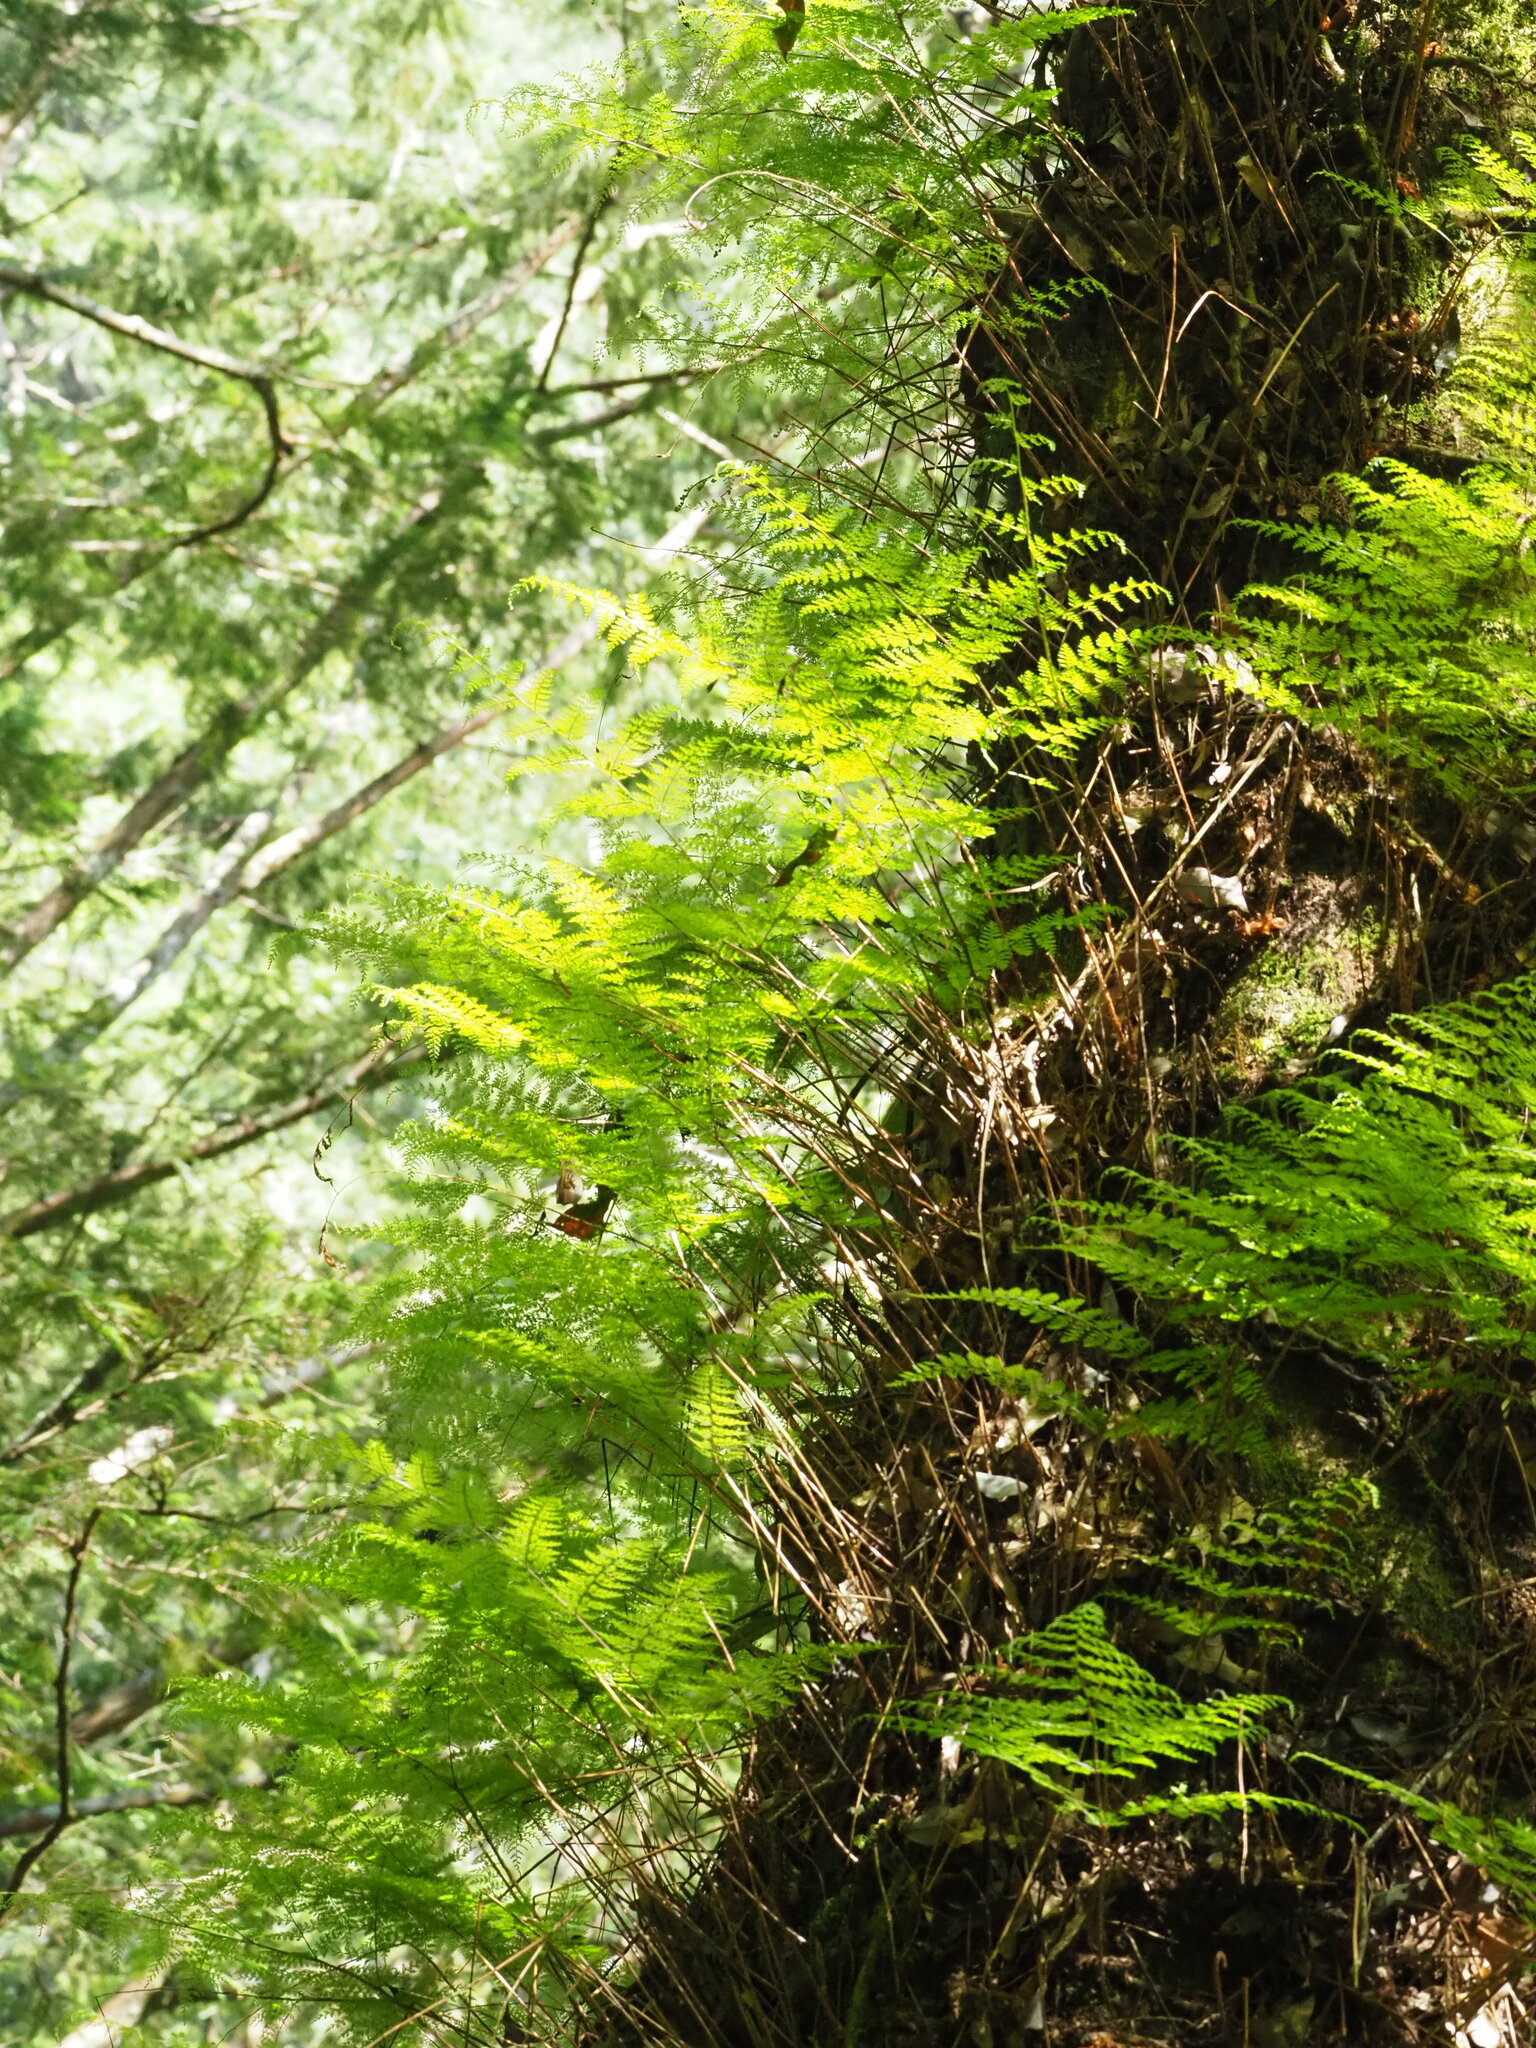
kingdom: Plantae
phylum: Tracheophyta
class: Polypodiopsida
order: Polypodiales
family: Davalliaceae
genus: Davallia
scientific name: Davallia perdurans
